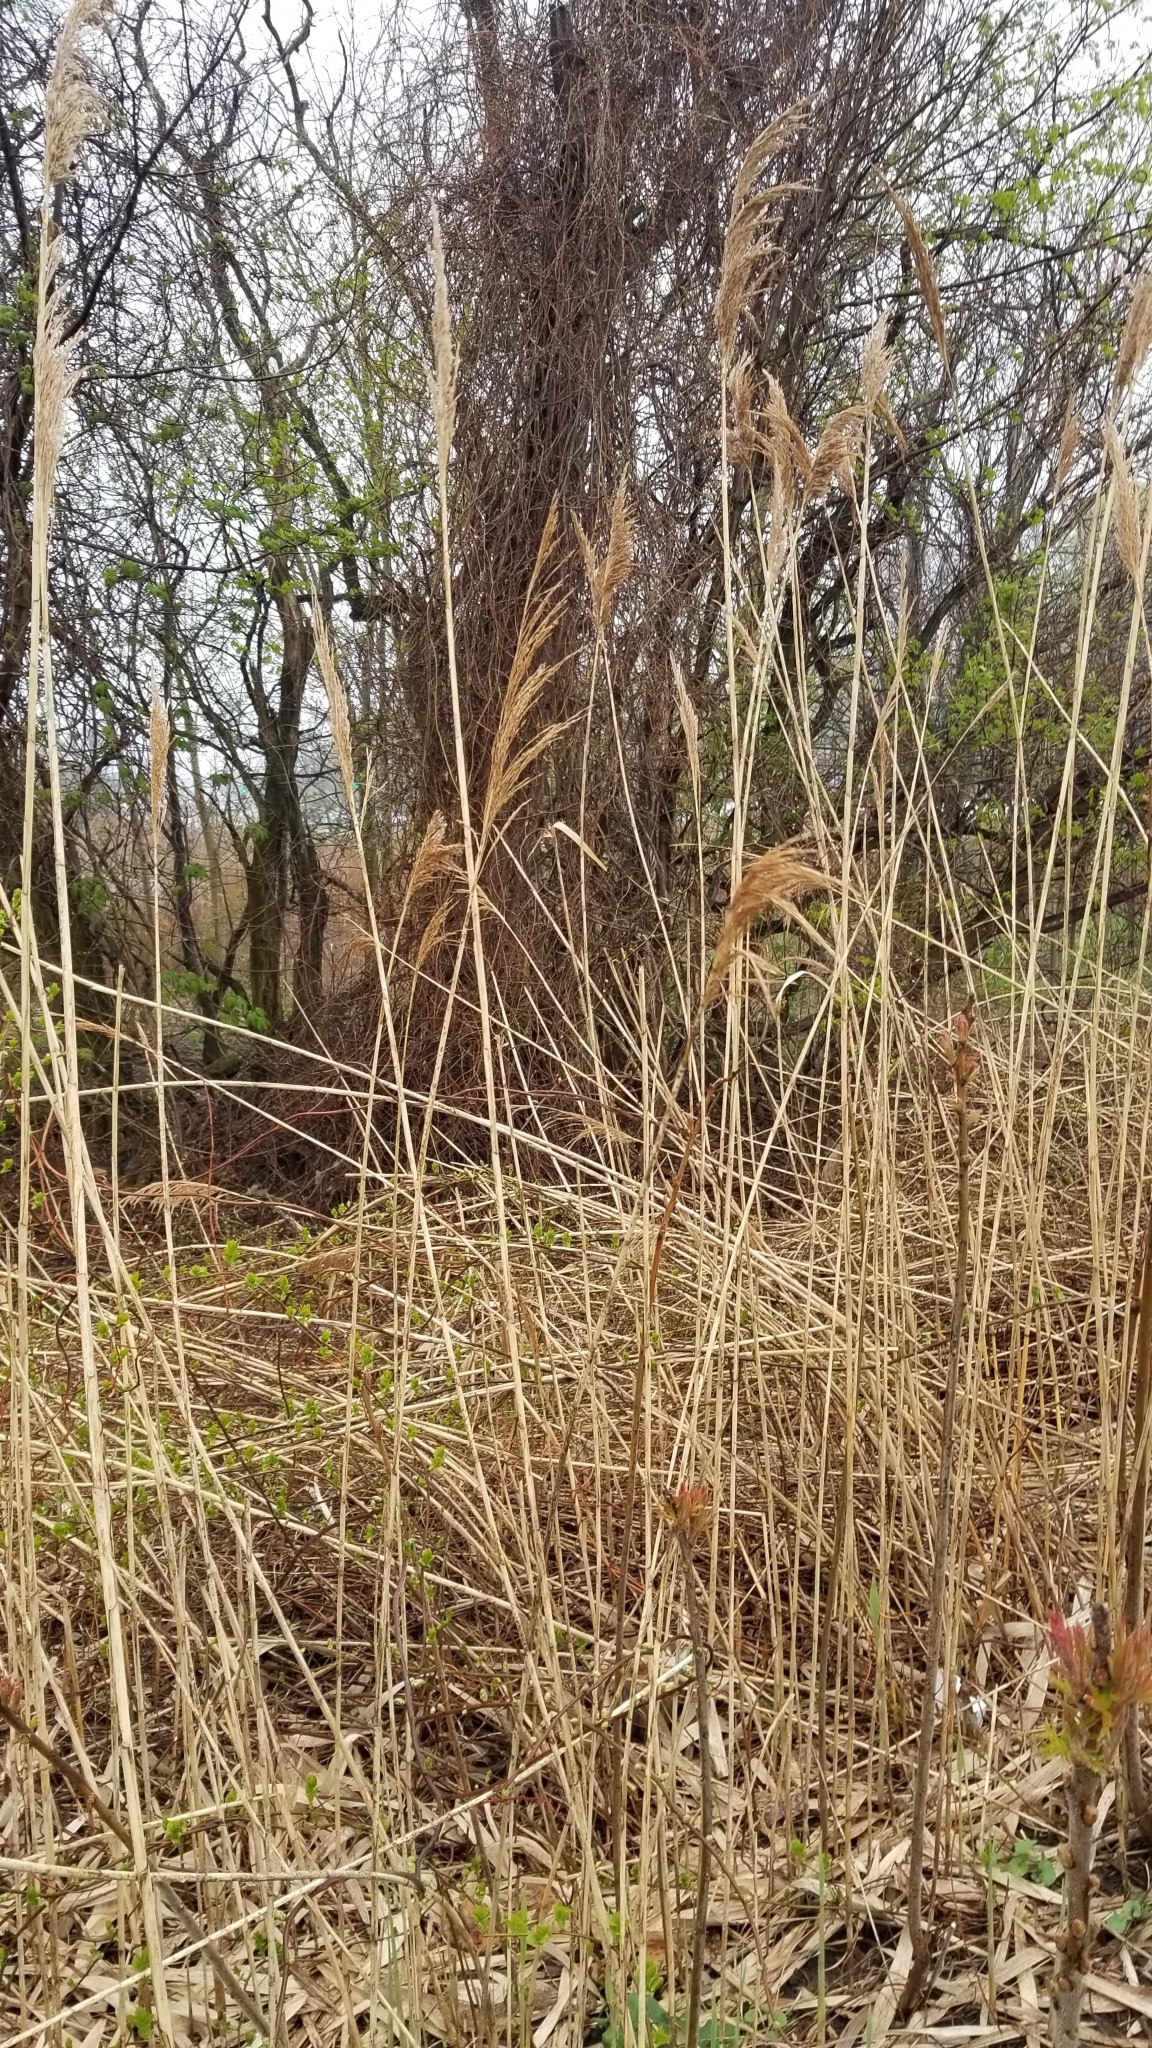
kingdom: Plantae
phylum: Tracheophyta
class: Liliopsida
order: Poales
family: Poaceae
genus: Phragmites
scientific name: Phragmites australis
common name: Common reed
